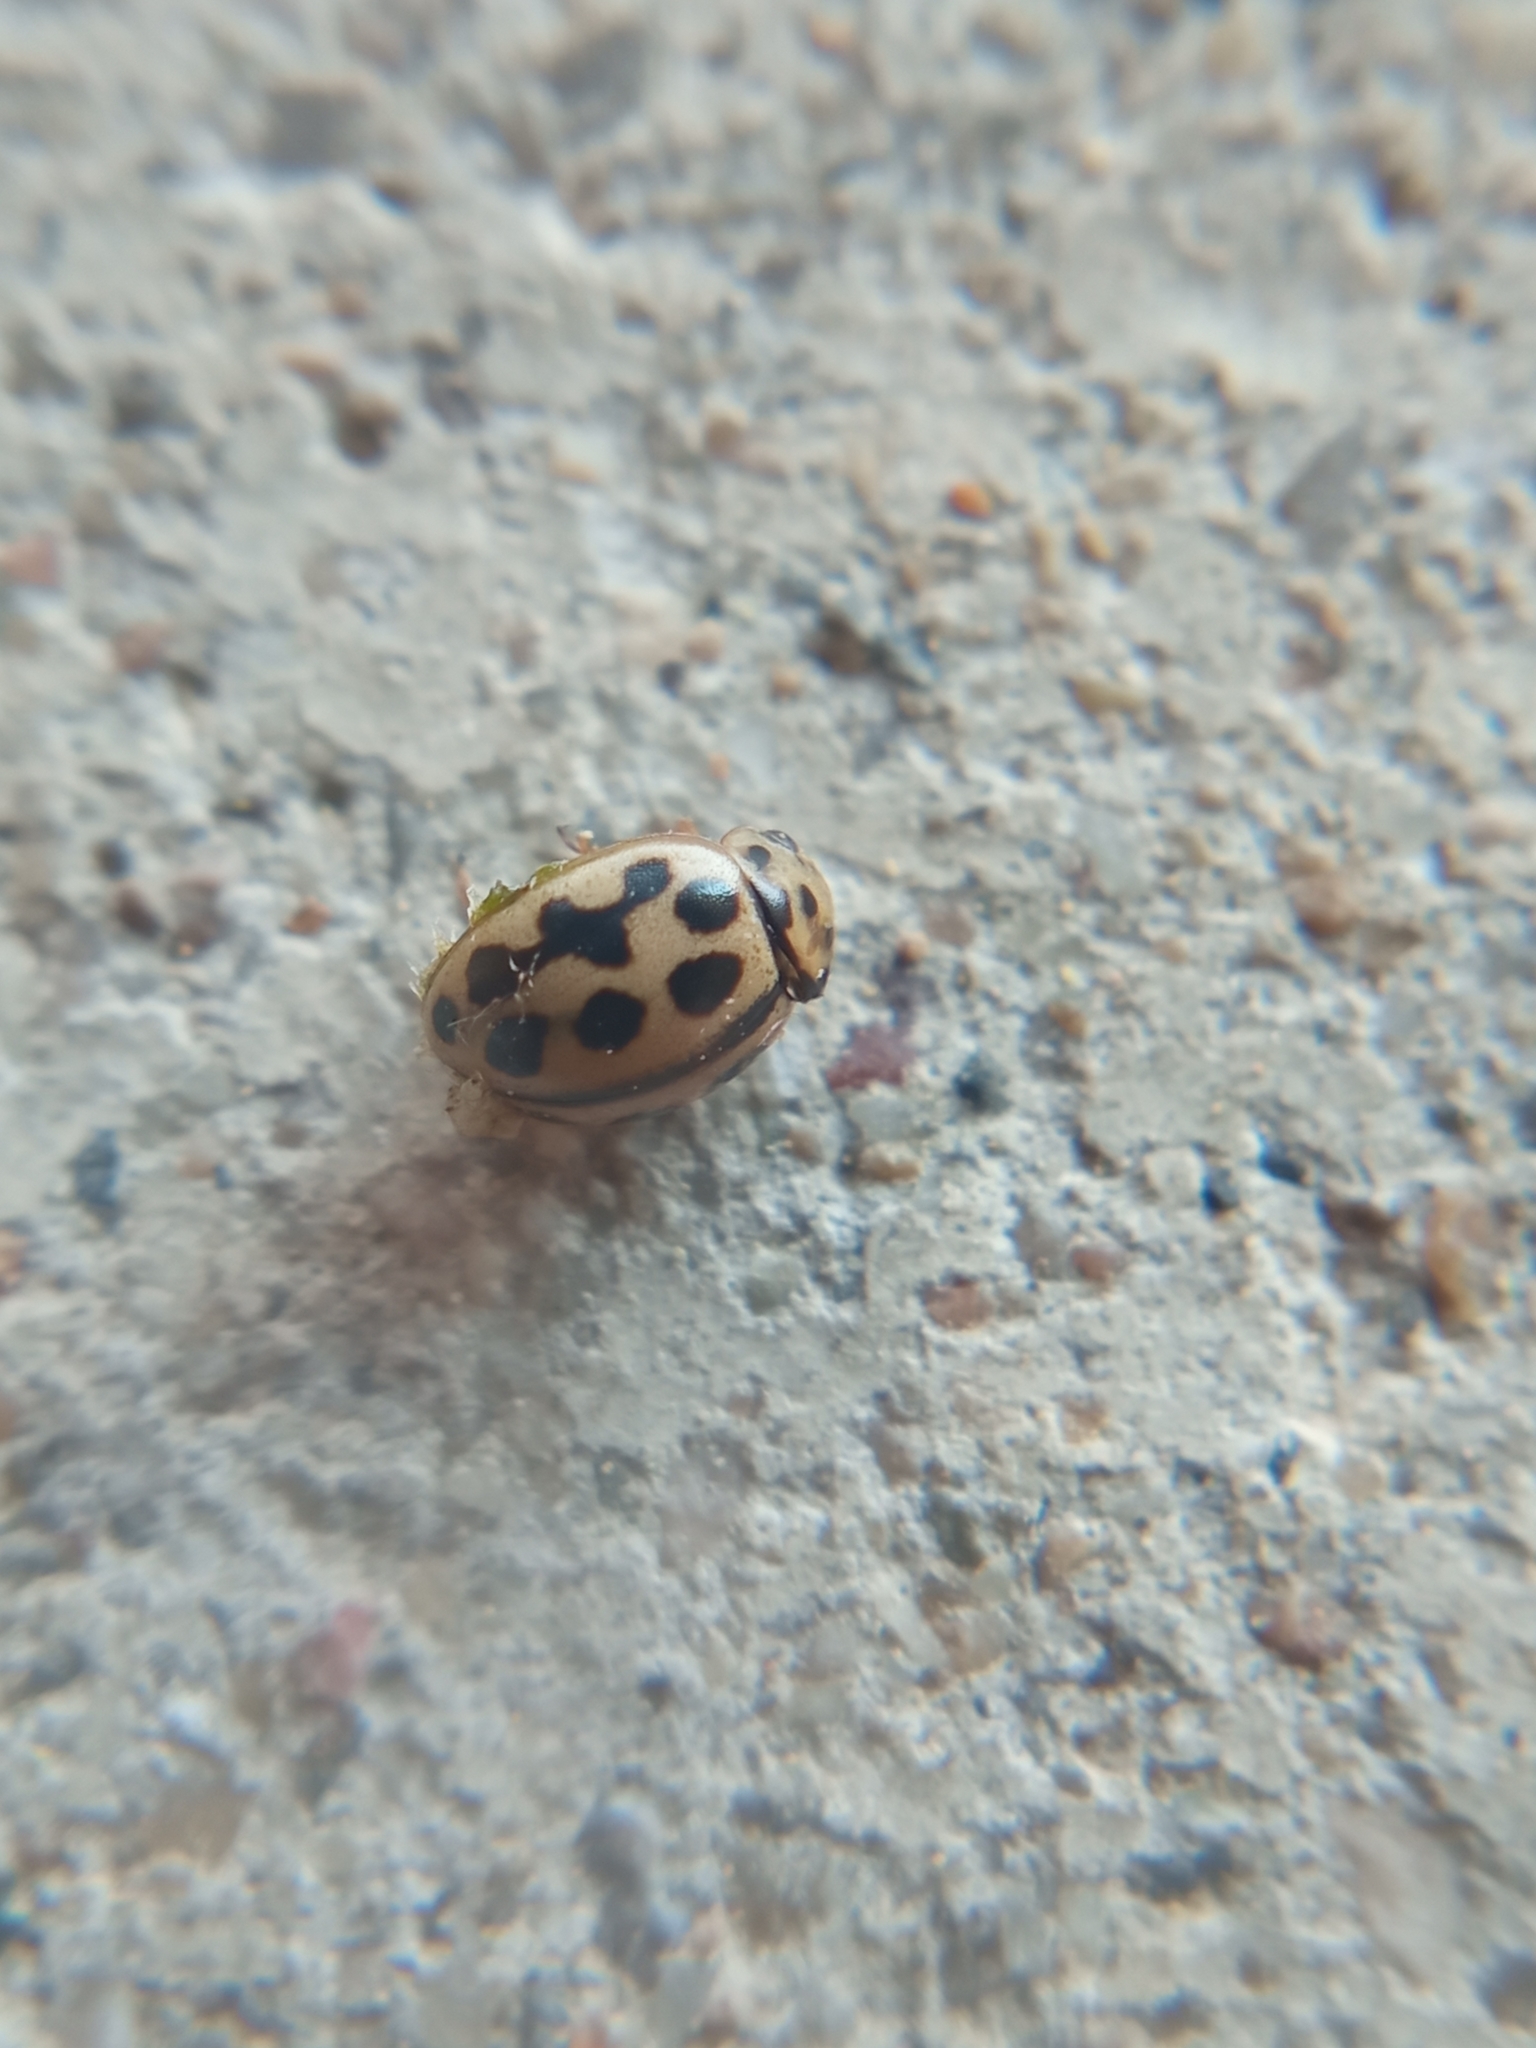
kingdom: Animalia
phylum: Arthropoda
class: Insecta
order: Coleoptera
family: Coccinellidae
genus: Tytthaspis
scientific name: Tytthaspis sedecimpunctata
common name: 16-spot ladybird
